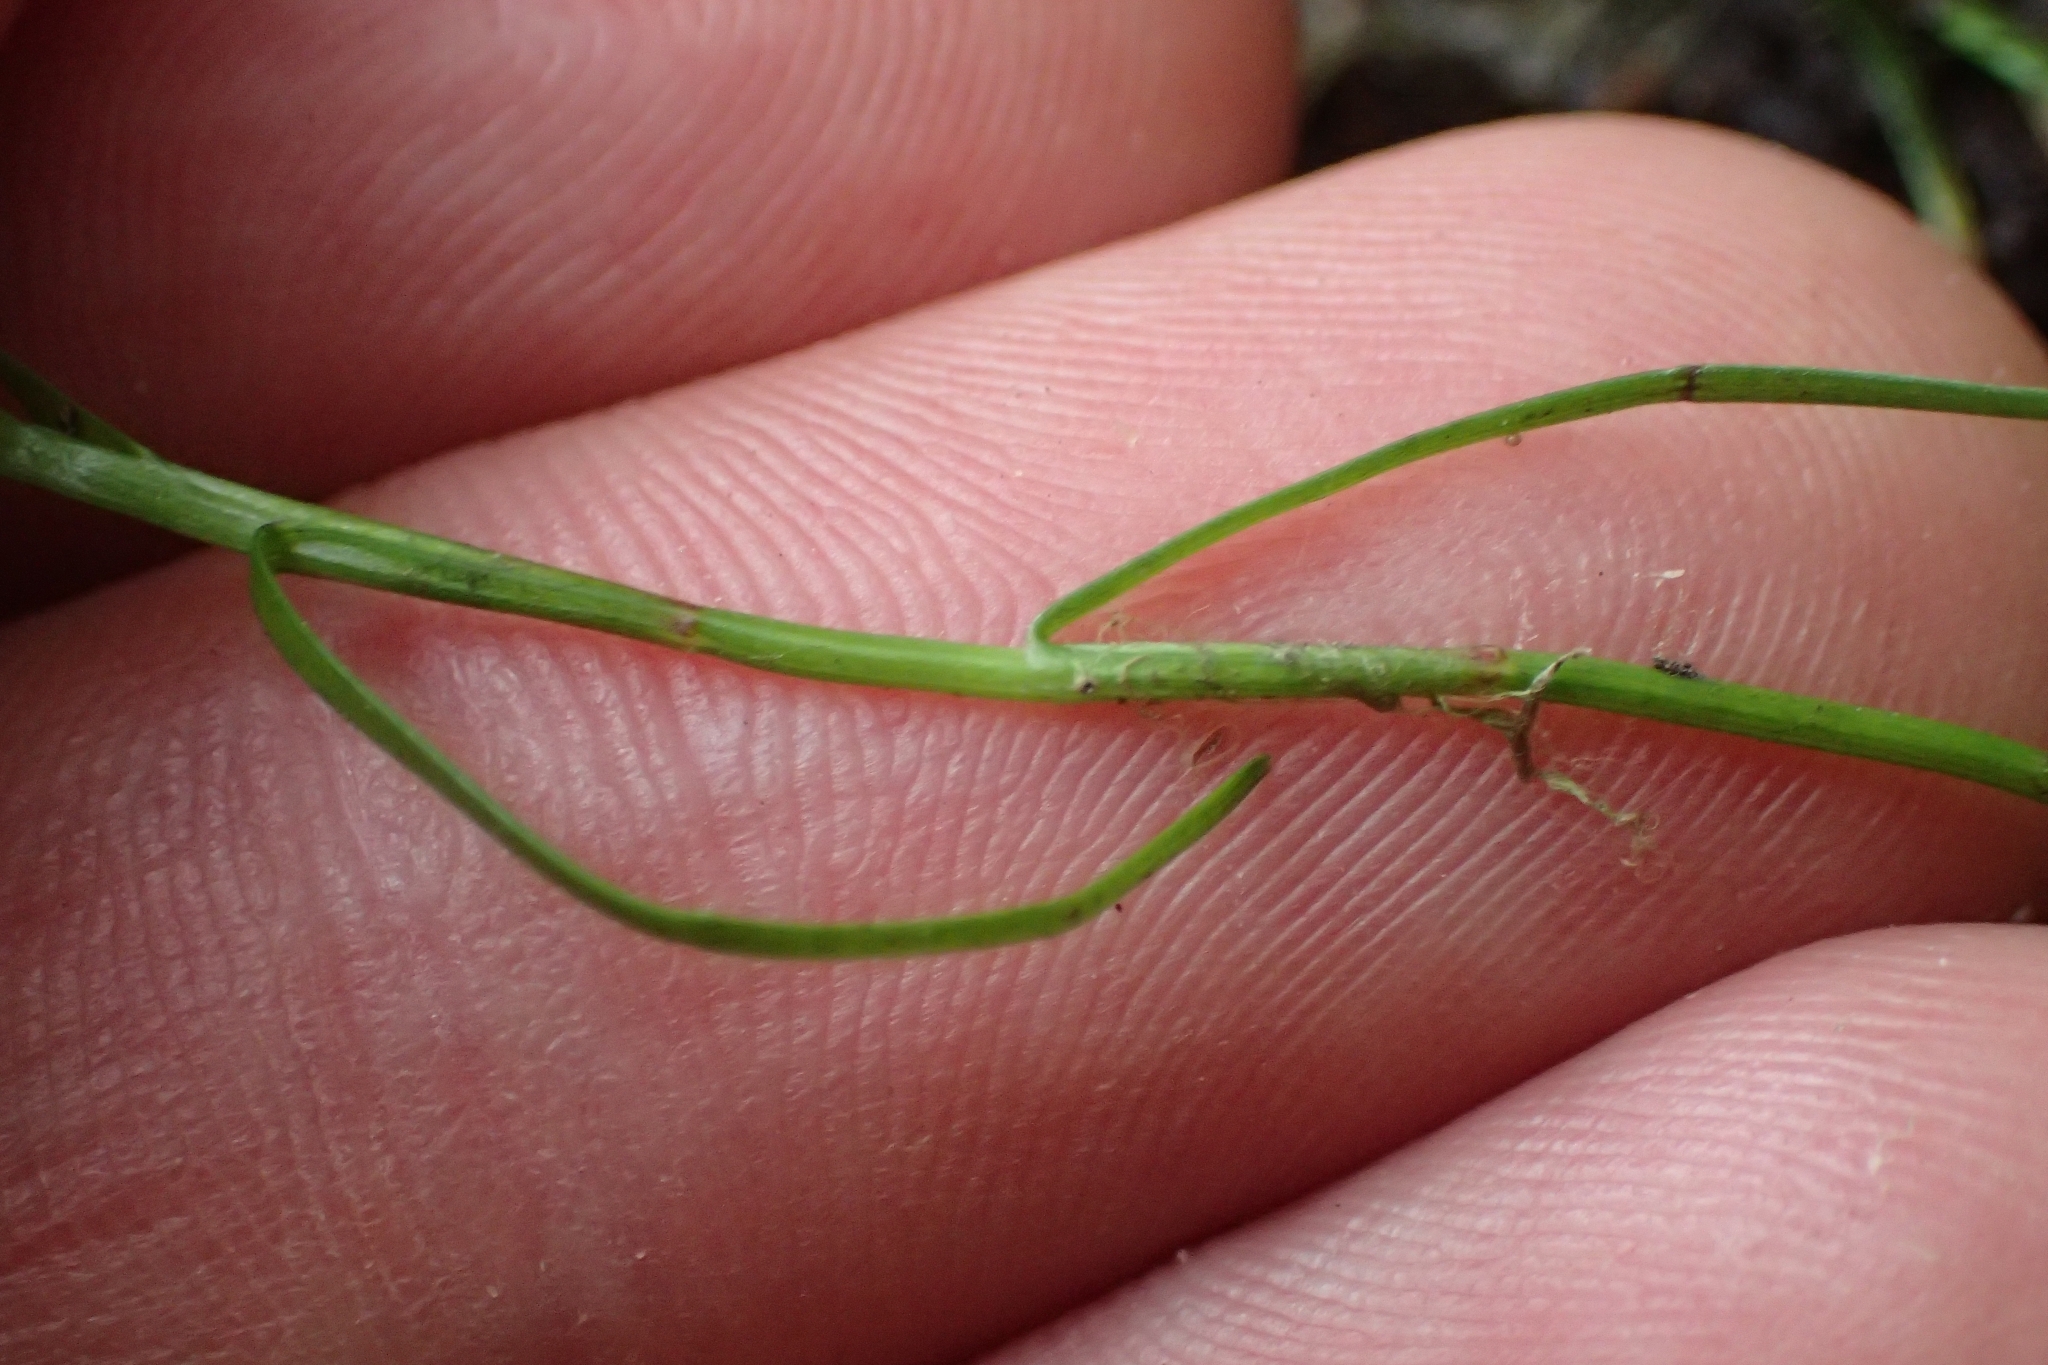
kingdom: Plantae
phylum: Tracheophyta
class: Liliopsida
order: Poales
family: Cyperaceae
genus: Schoenus
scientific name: Schoenus maschalinus
